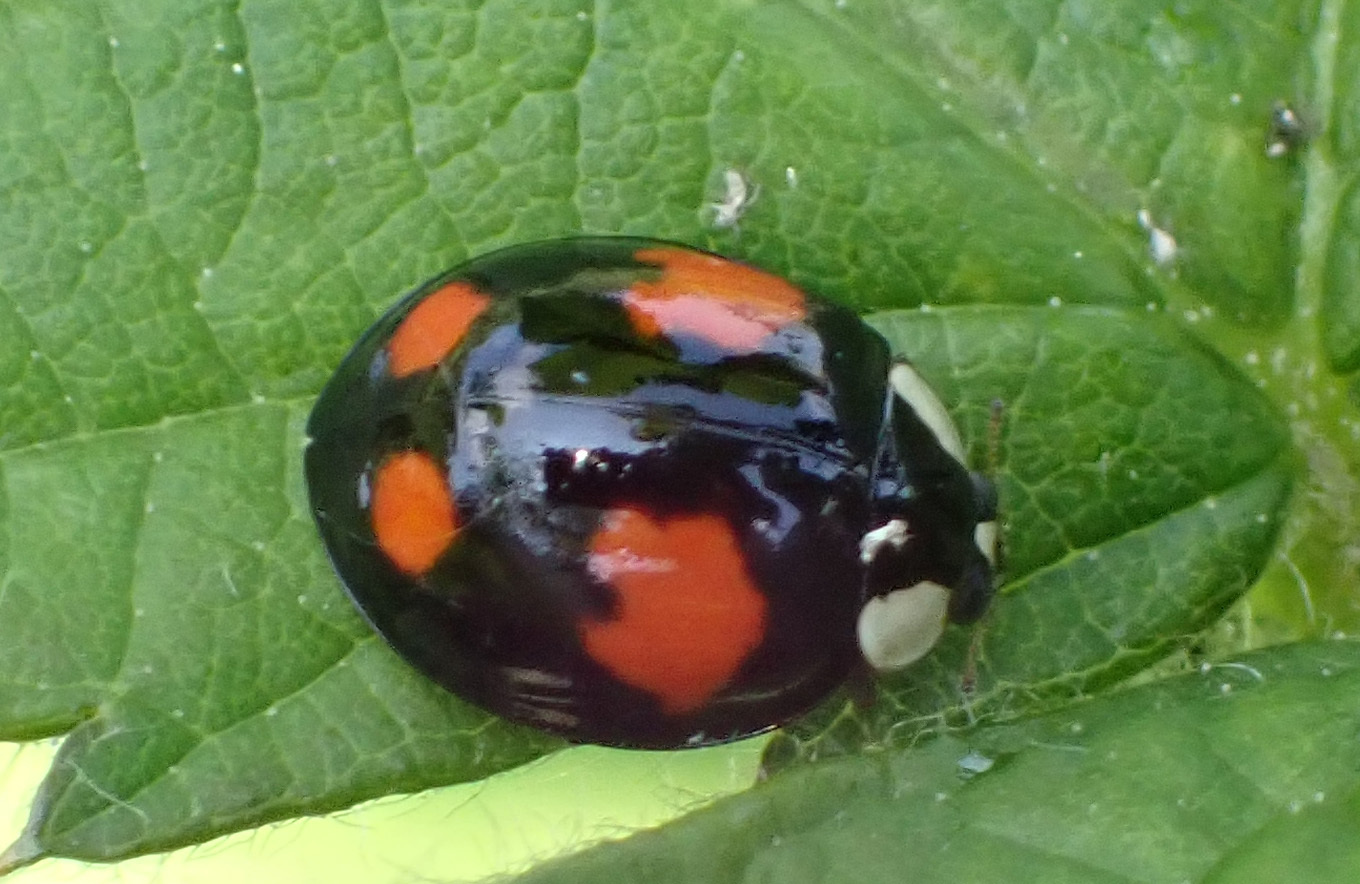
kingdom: Animalia
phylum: Arthropoda
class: Insecta
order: Coleoptera
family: Coccinellidae
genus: Harmonia
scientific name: Harmonia axyridis
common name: Harlequin ladybird
